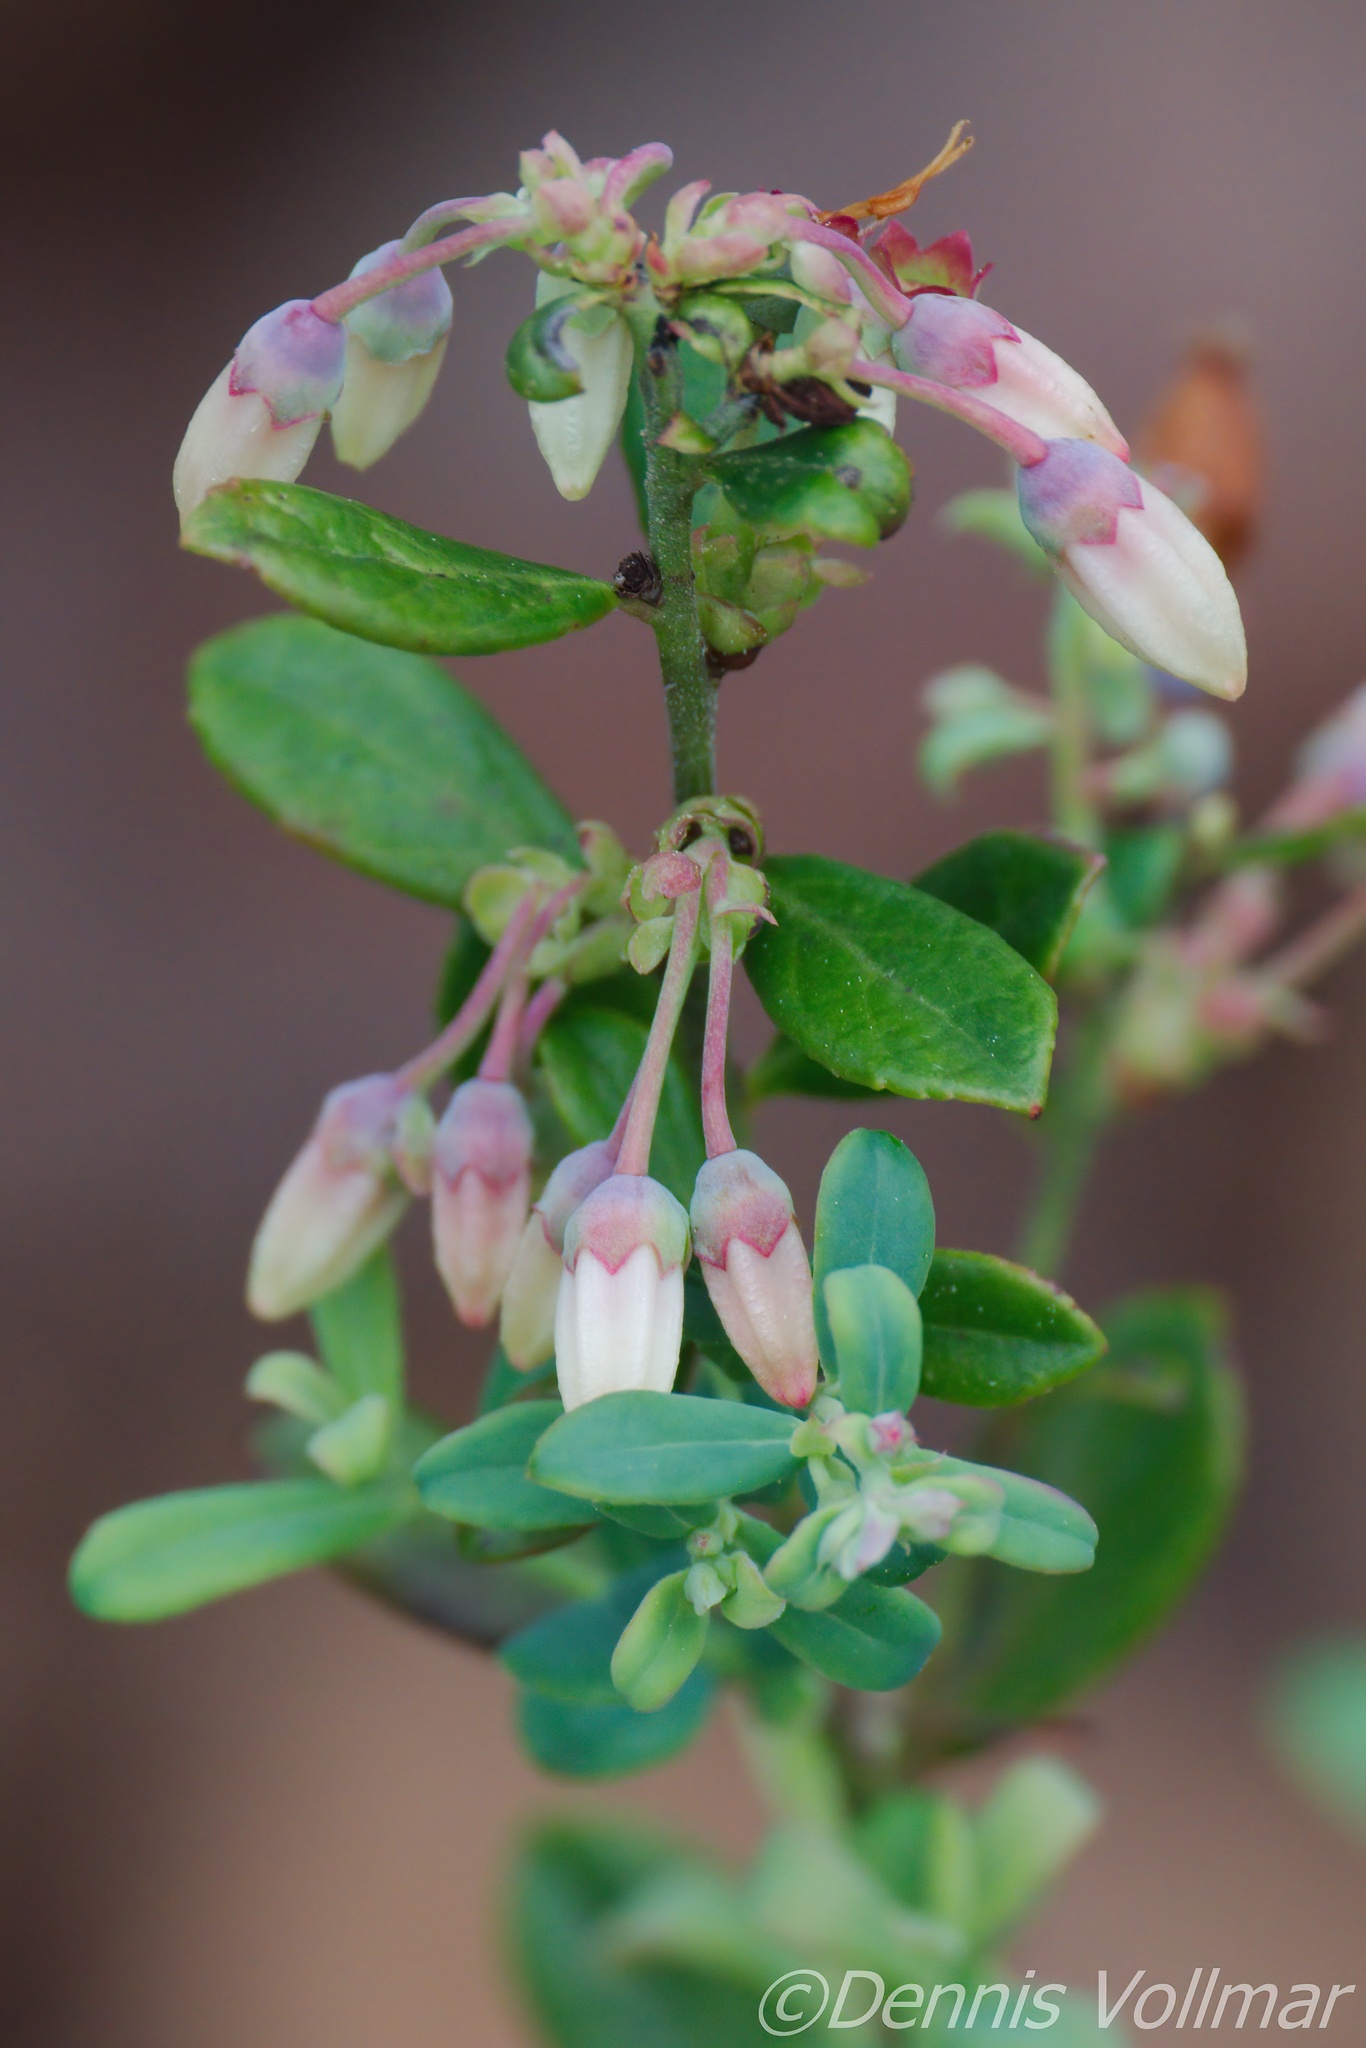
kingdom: Plantae
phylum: Tracheophyta
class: Magnoliopsida
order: Ericales
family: Ericaceae
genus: Vaccinium
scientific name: Vaccinium darrowii
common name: Darrow's blueberry
